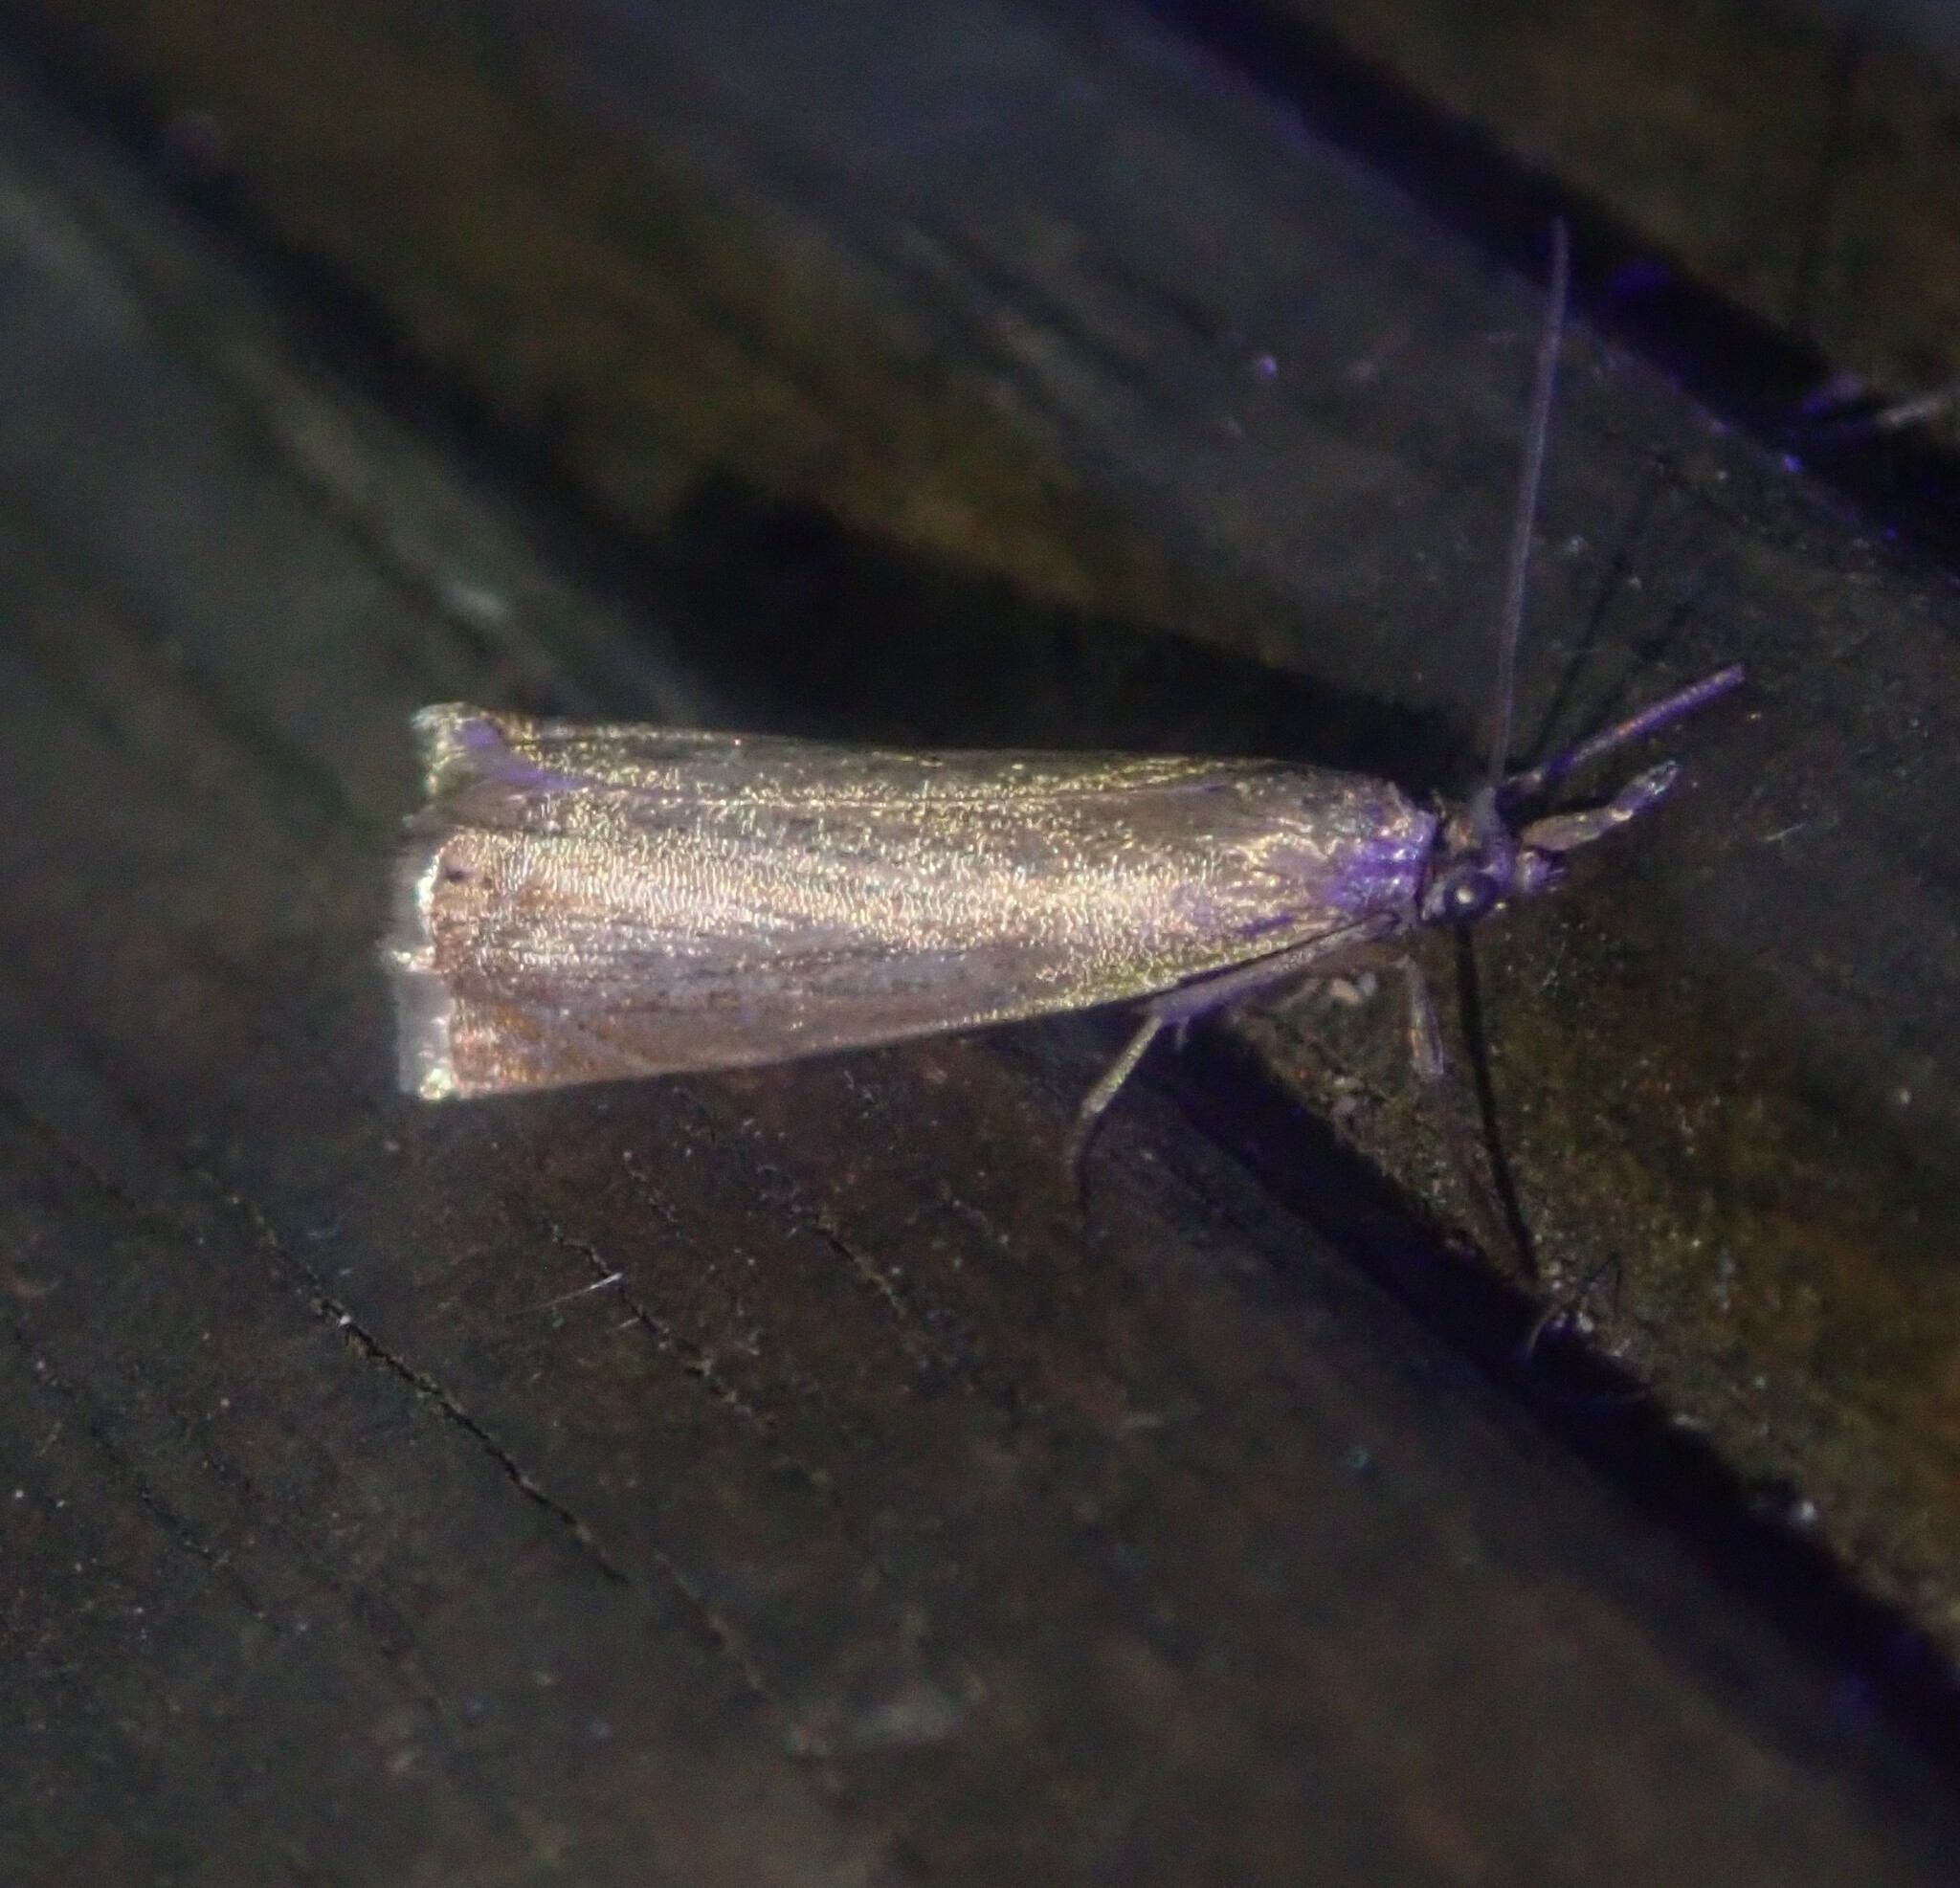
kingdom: Animalia
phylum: Arthropoda
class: Insecta
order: Lepidoptera
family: Crambidae
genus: Chrysoteuchia
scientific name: Chrysoteuchia culmella
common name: Garden grass-veneer
